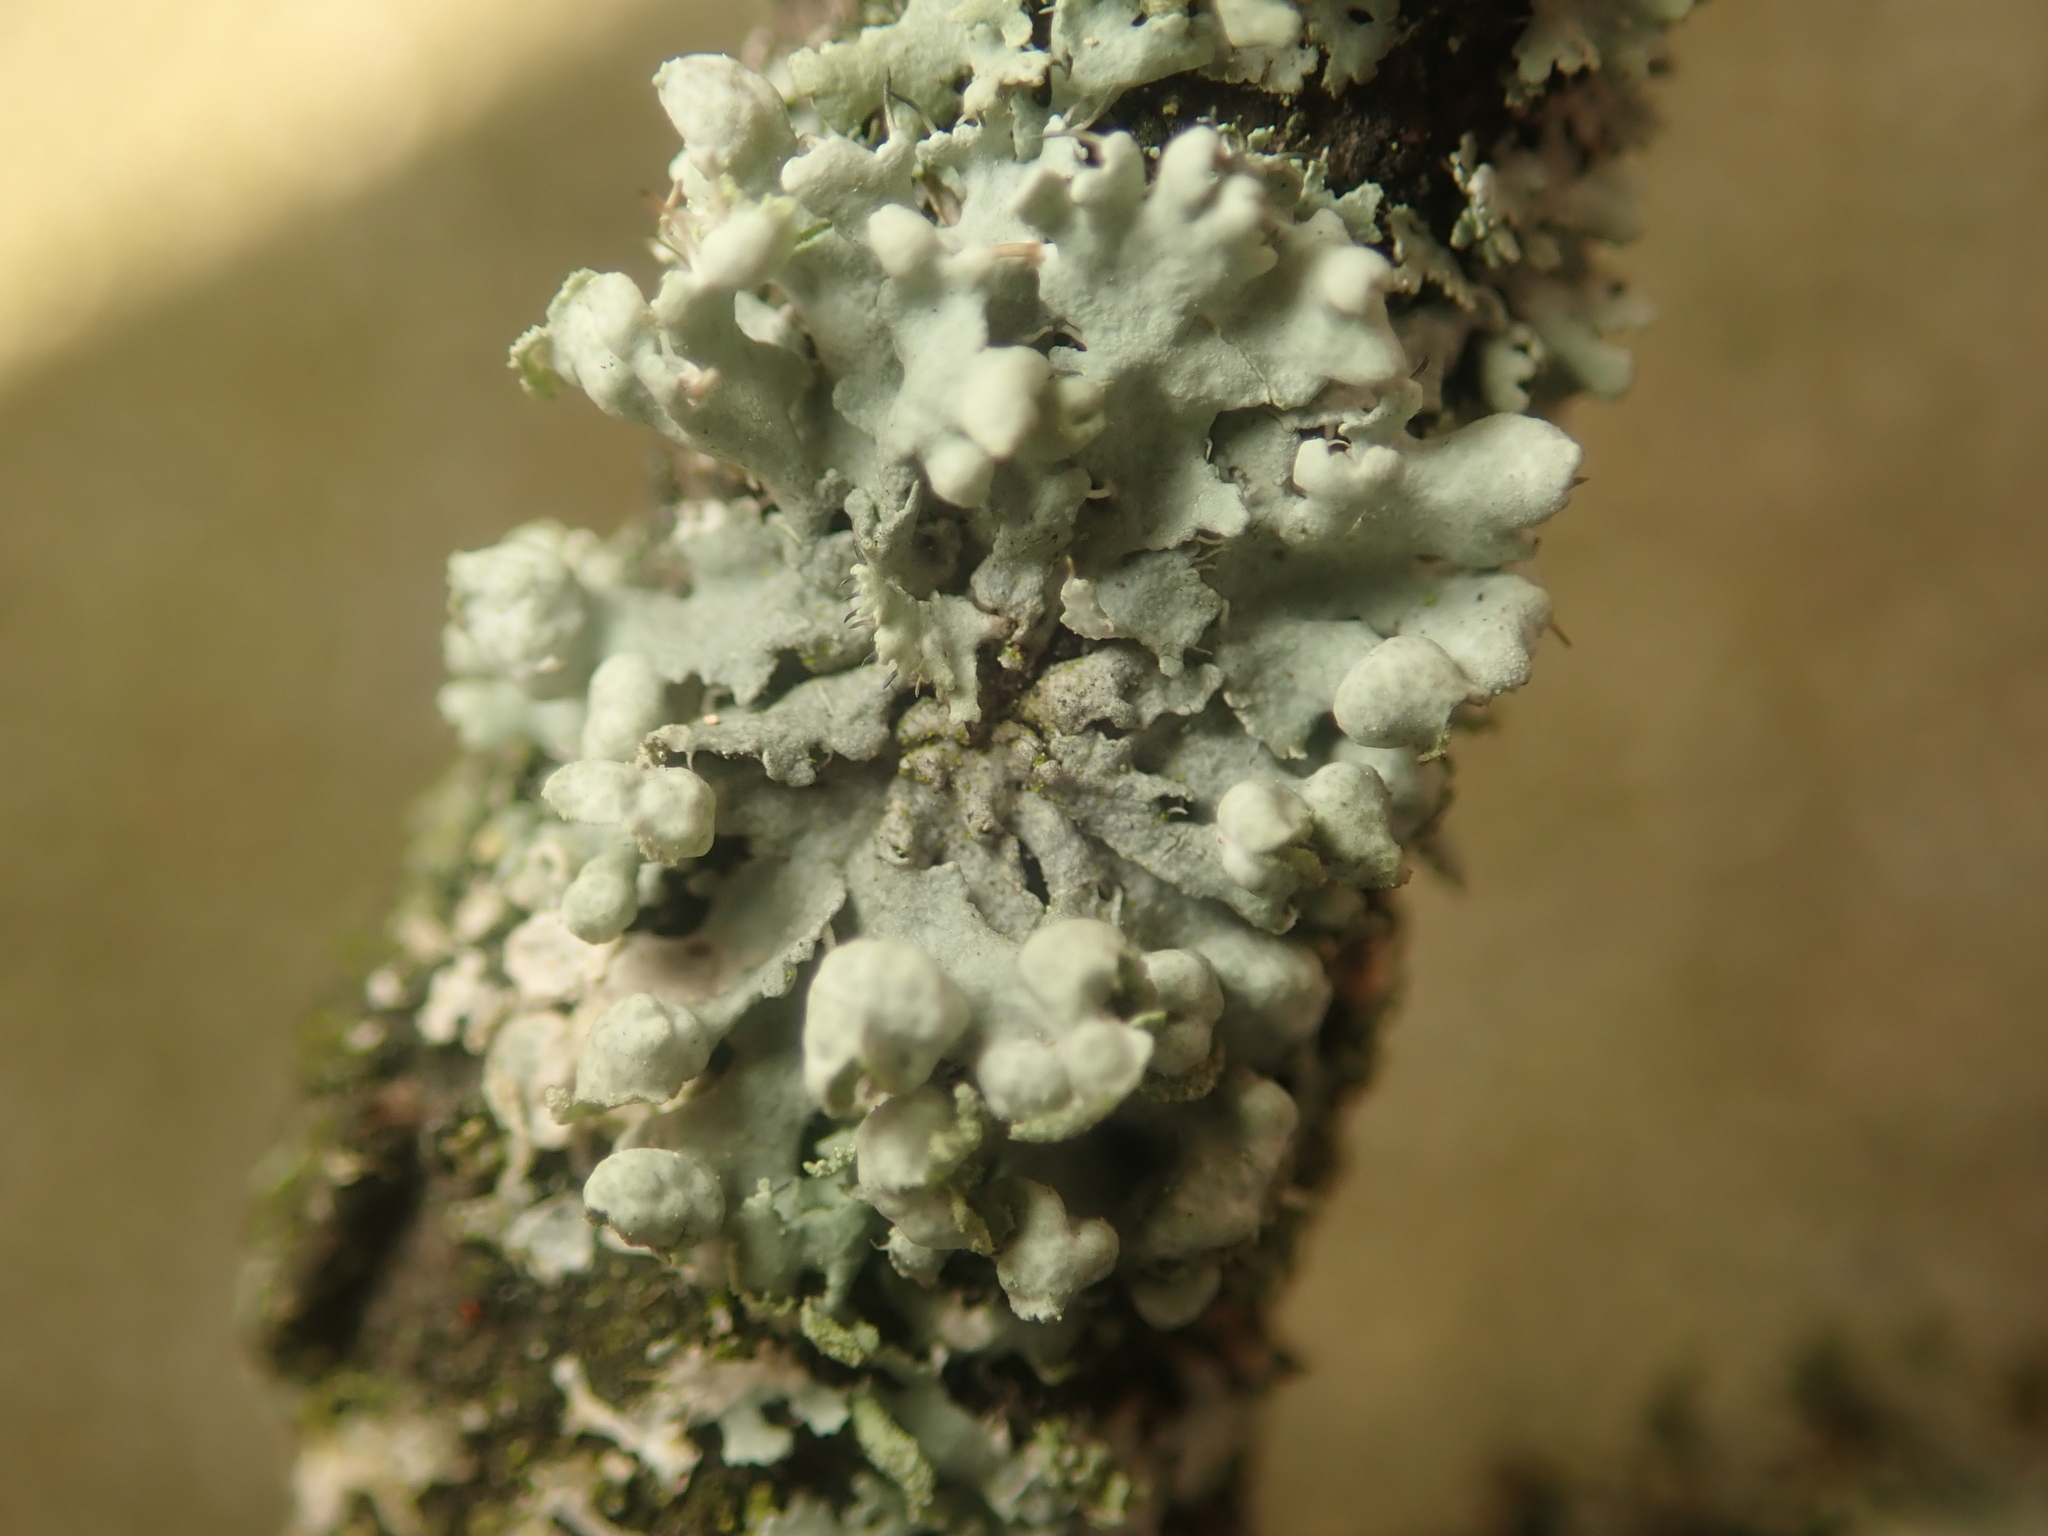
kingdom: Fungi
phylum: Ascomycota
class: Lecanoromycetes
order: Caliciales
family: Physciaceae
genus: Physcia
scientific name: Physcia adscendens
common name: Hooded rosette lichen
